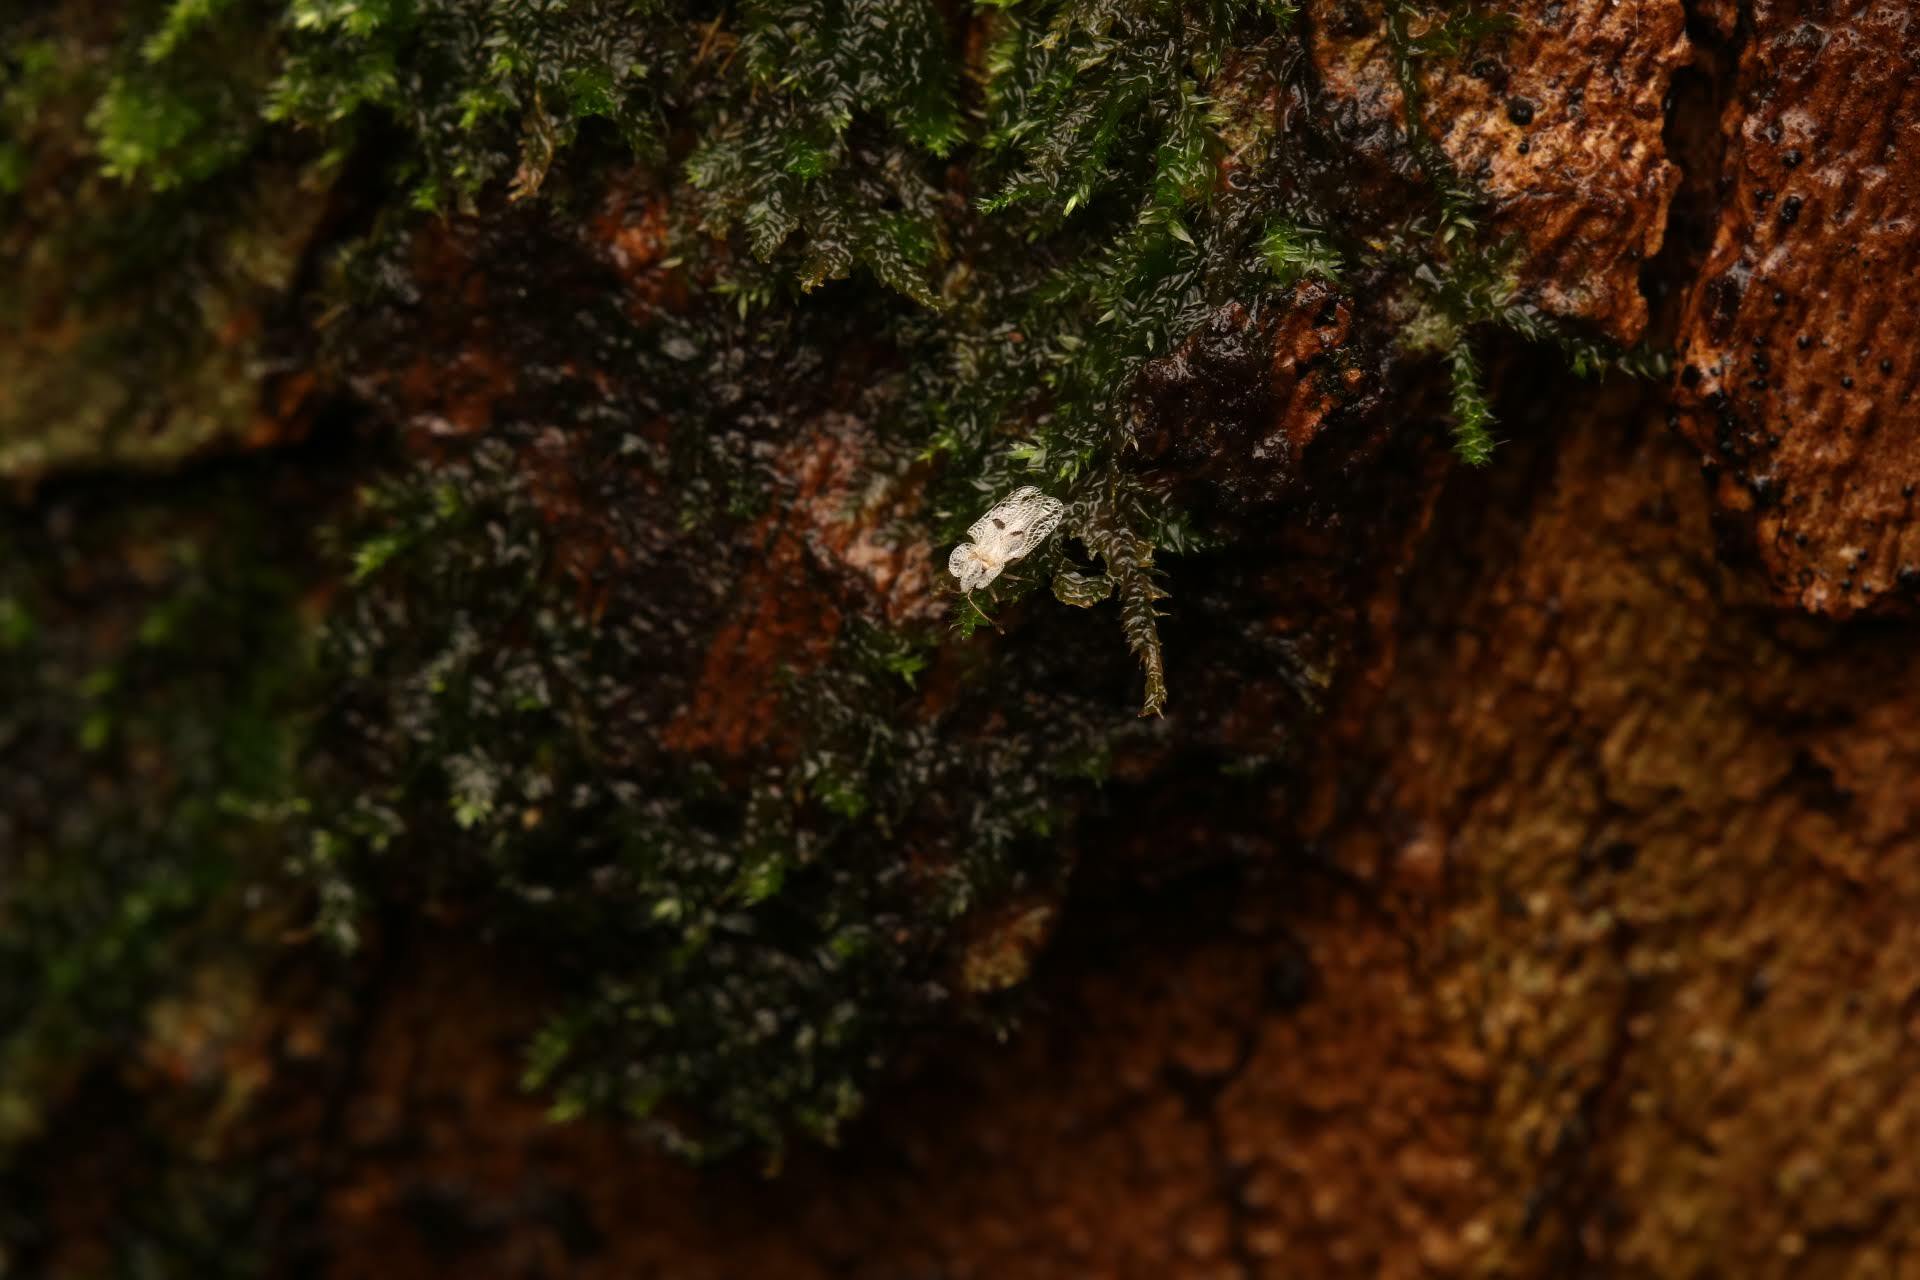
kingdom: Animalia
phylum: Arthropoda
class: Insecta
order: Hemiptera
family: Tingidae
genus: Corythucha
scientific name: Corythucha ciliata
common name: Sycamore lace bug
